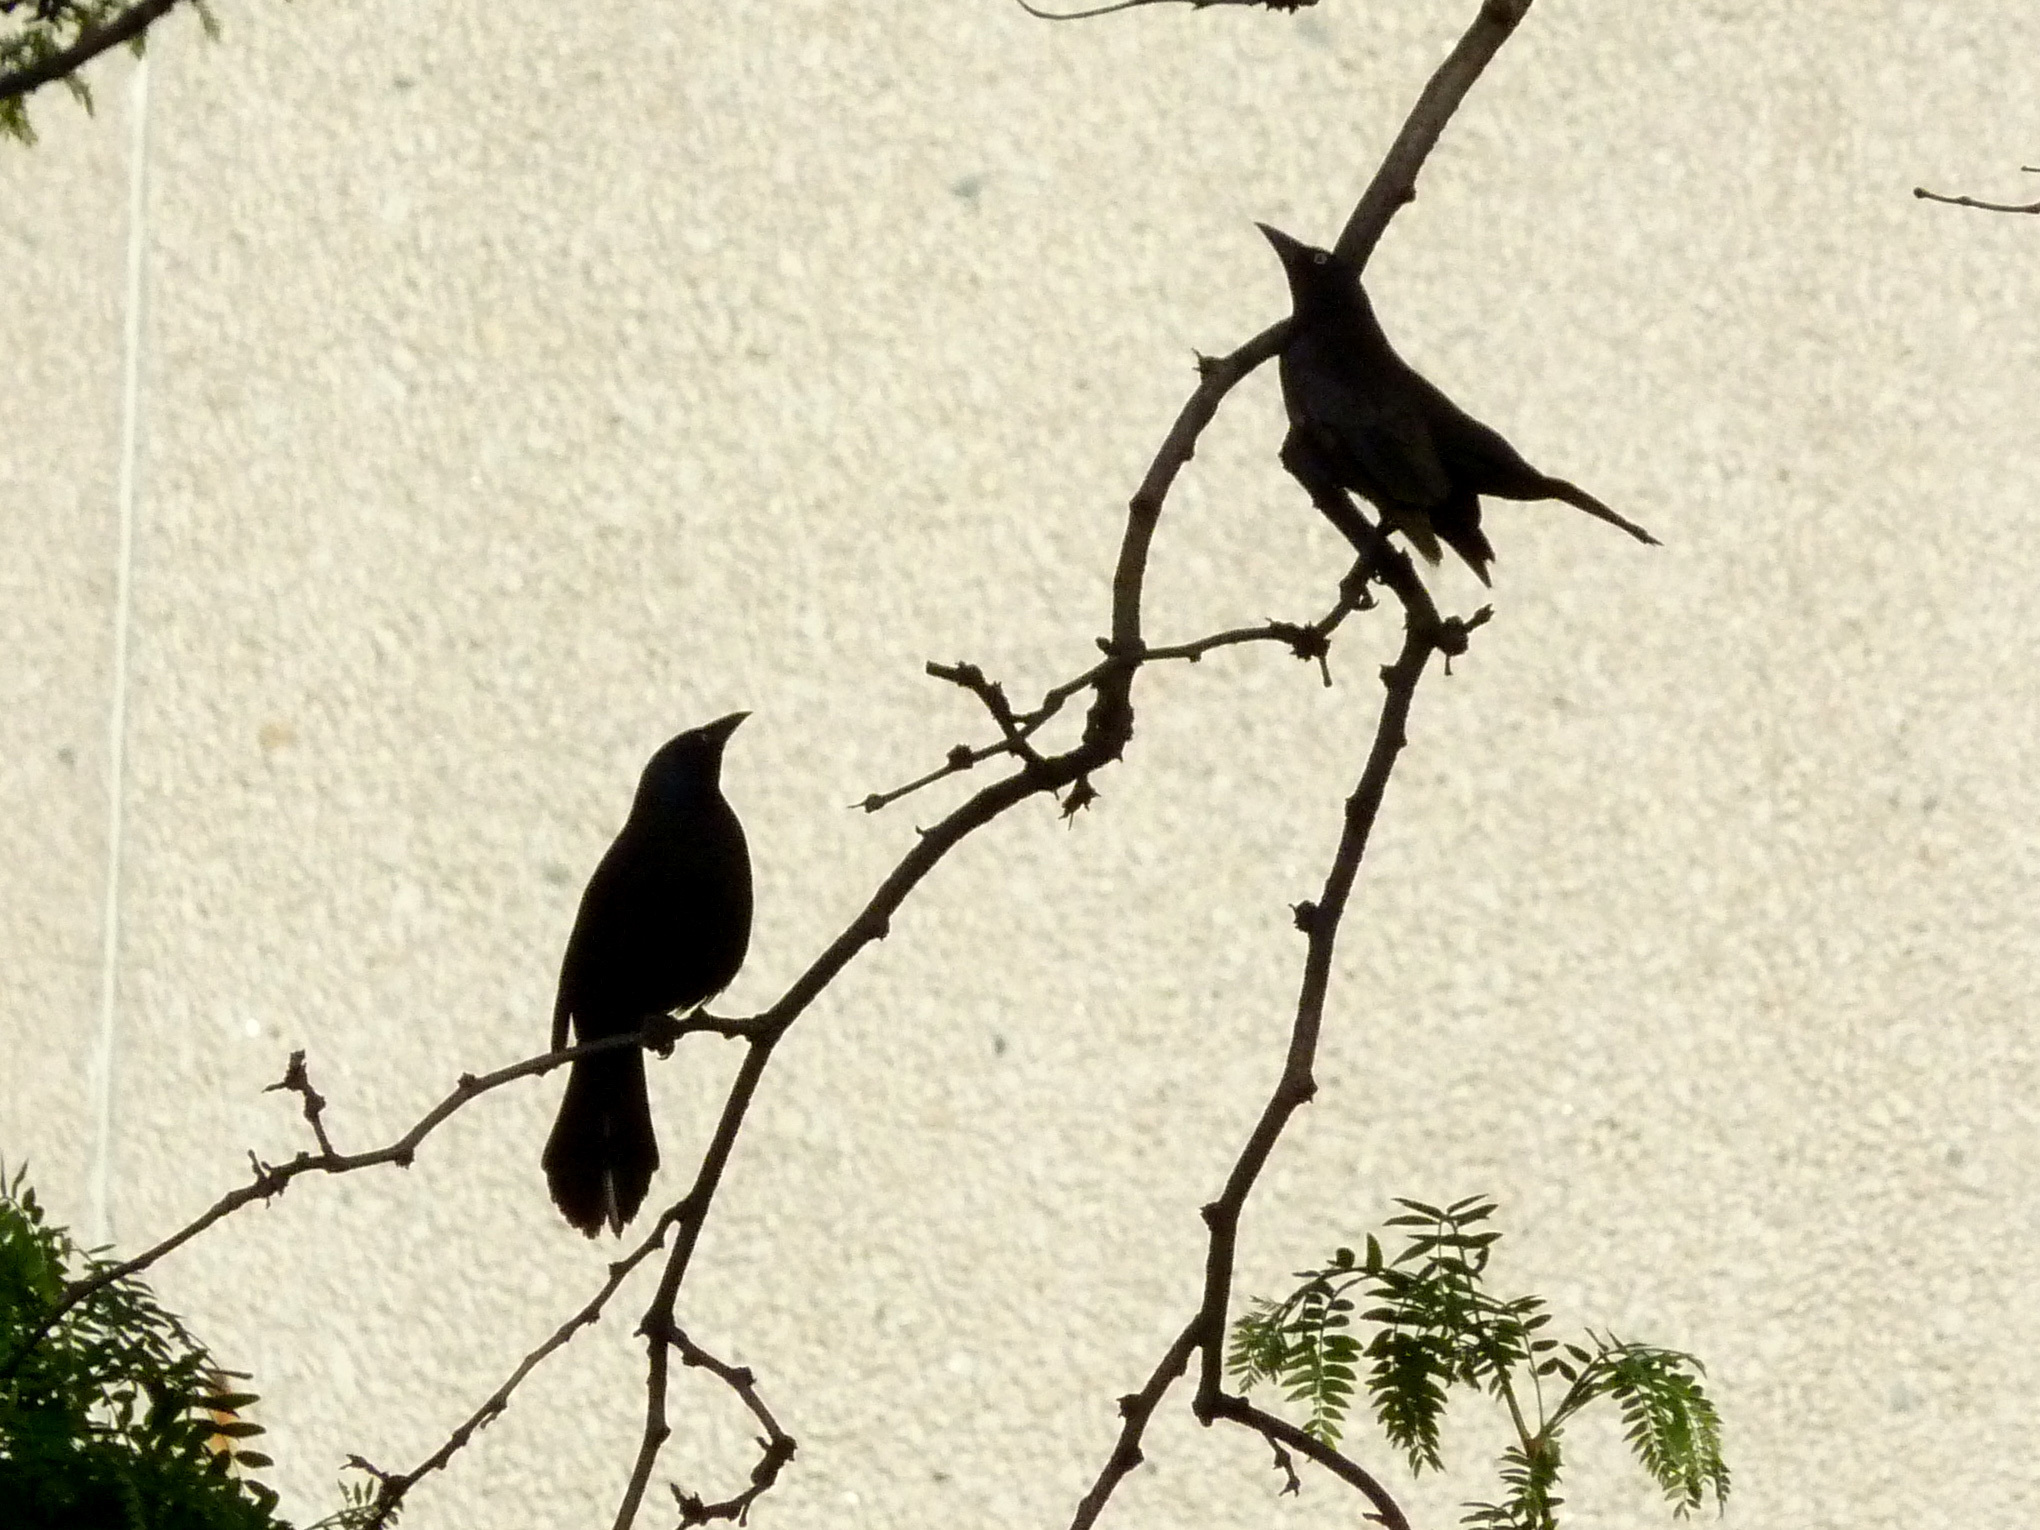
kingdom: Animalia
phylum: Chordata
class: Aves
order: Passeriformes
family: Icteridae
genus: Quiscalus
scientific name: Quiscalus quiscula
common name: Common grackle
